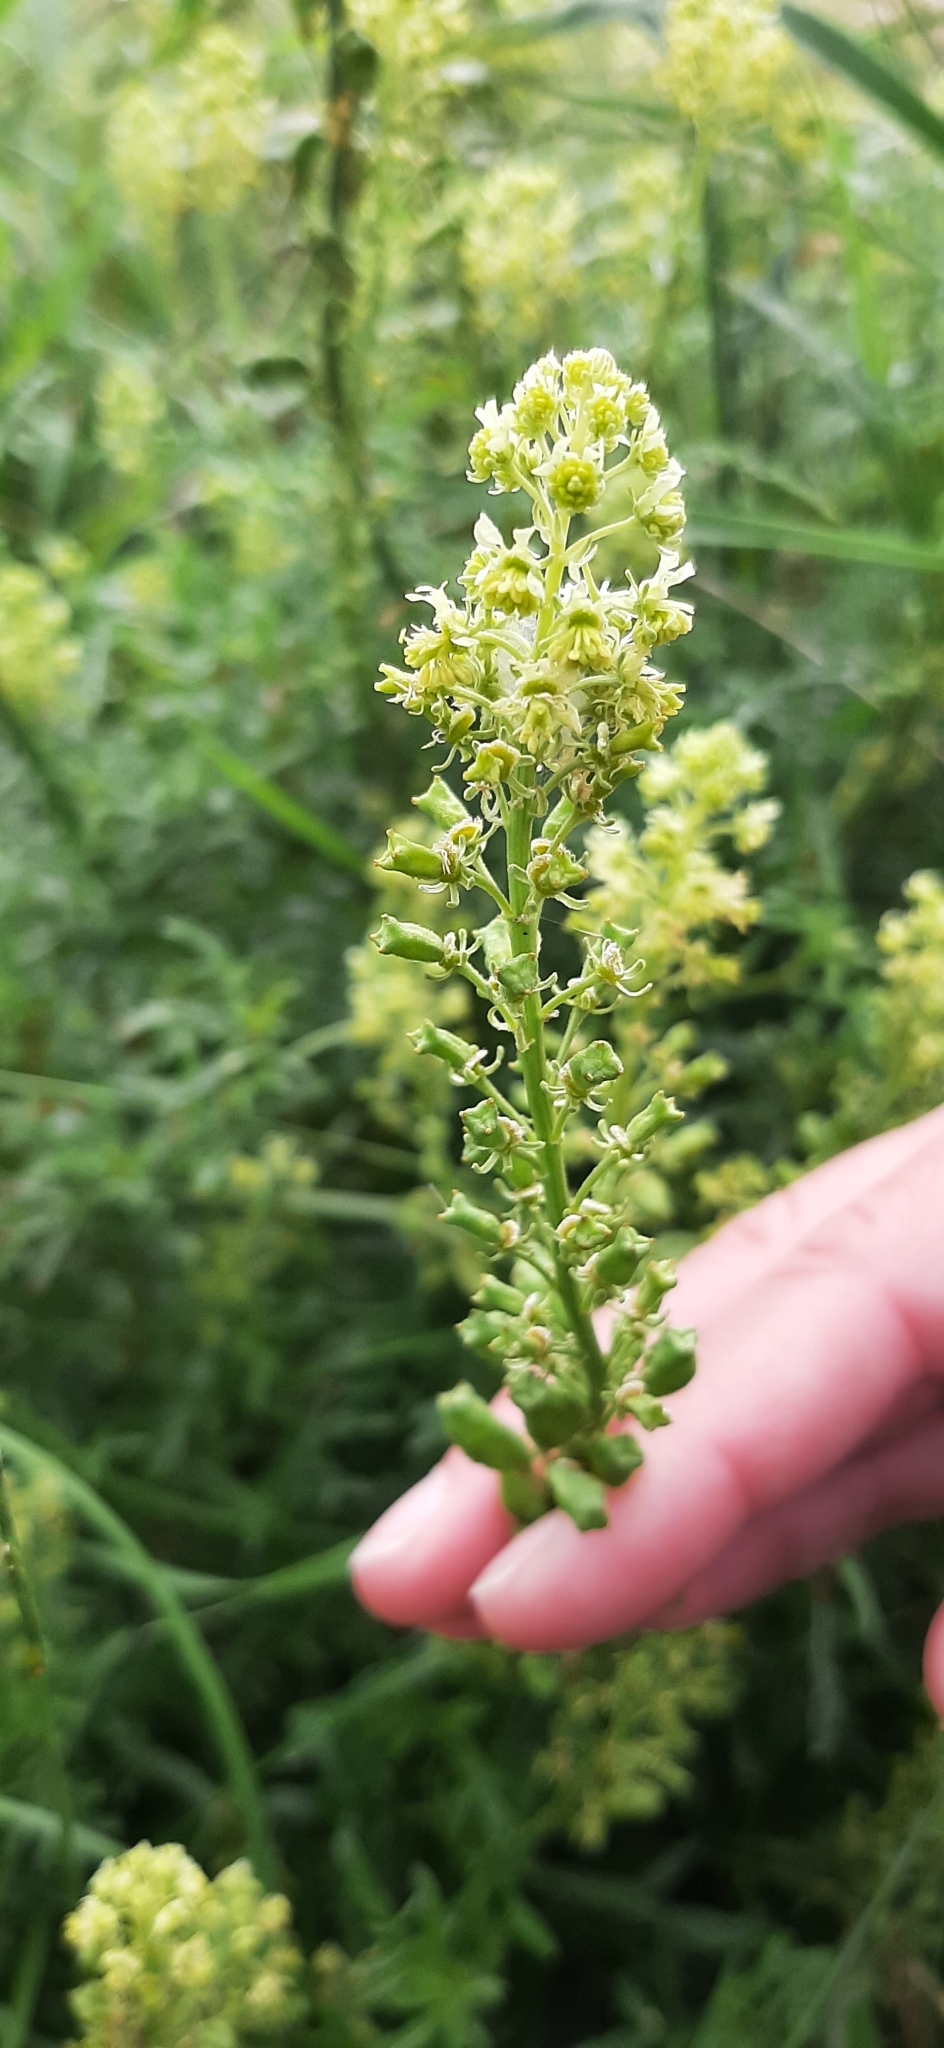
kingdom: Plantae
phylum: Tracheophyta
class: Magnoliopsida
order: Brassicales
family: Resedaceae
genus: Reseda
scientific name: Reseda lutea
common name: Wild mignonette
